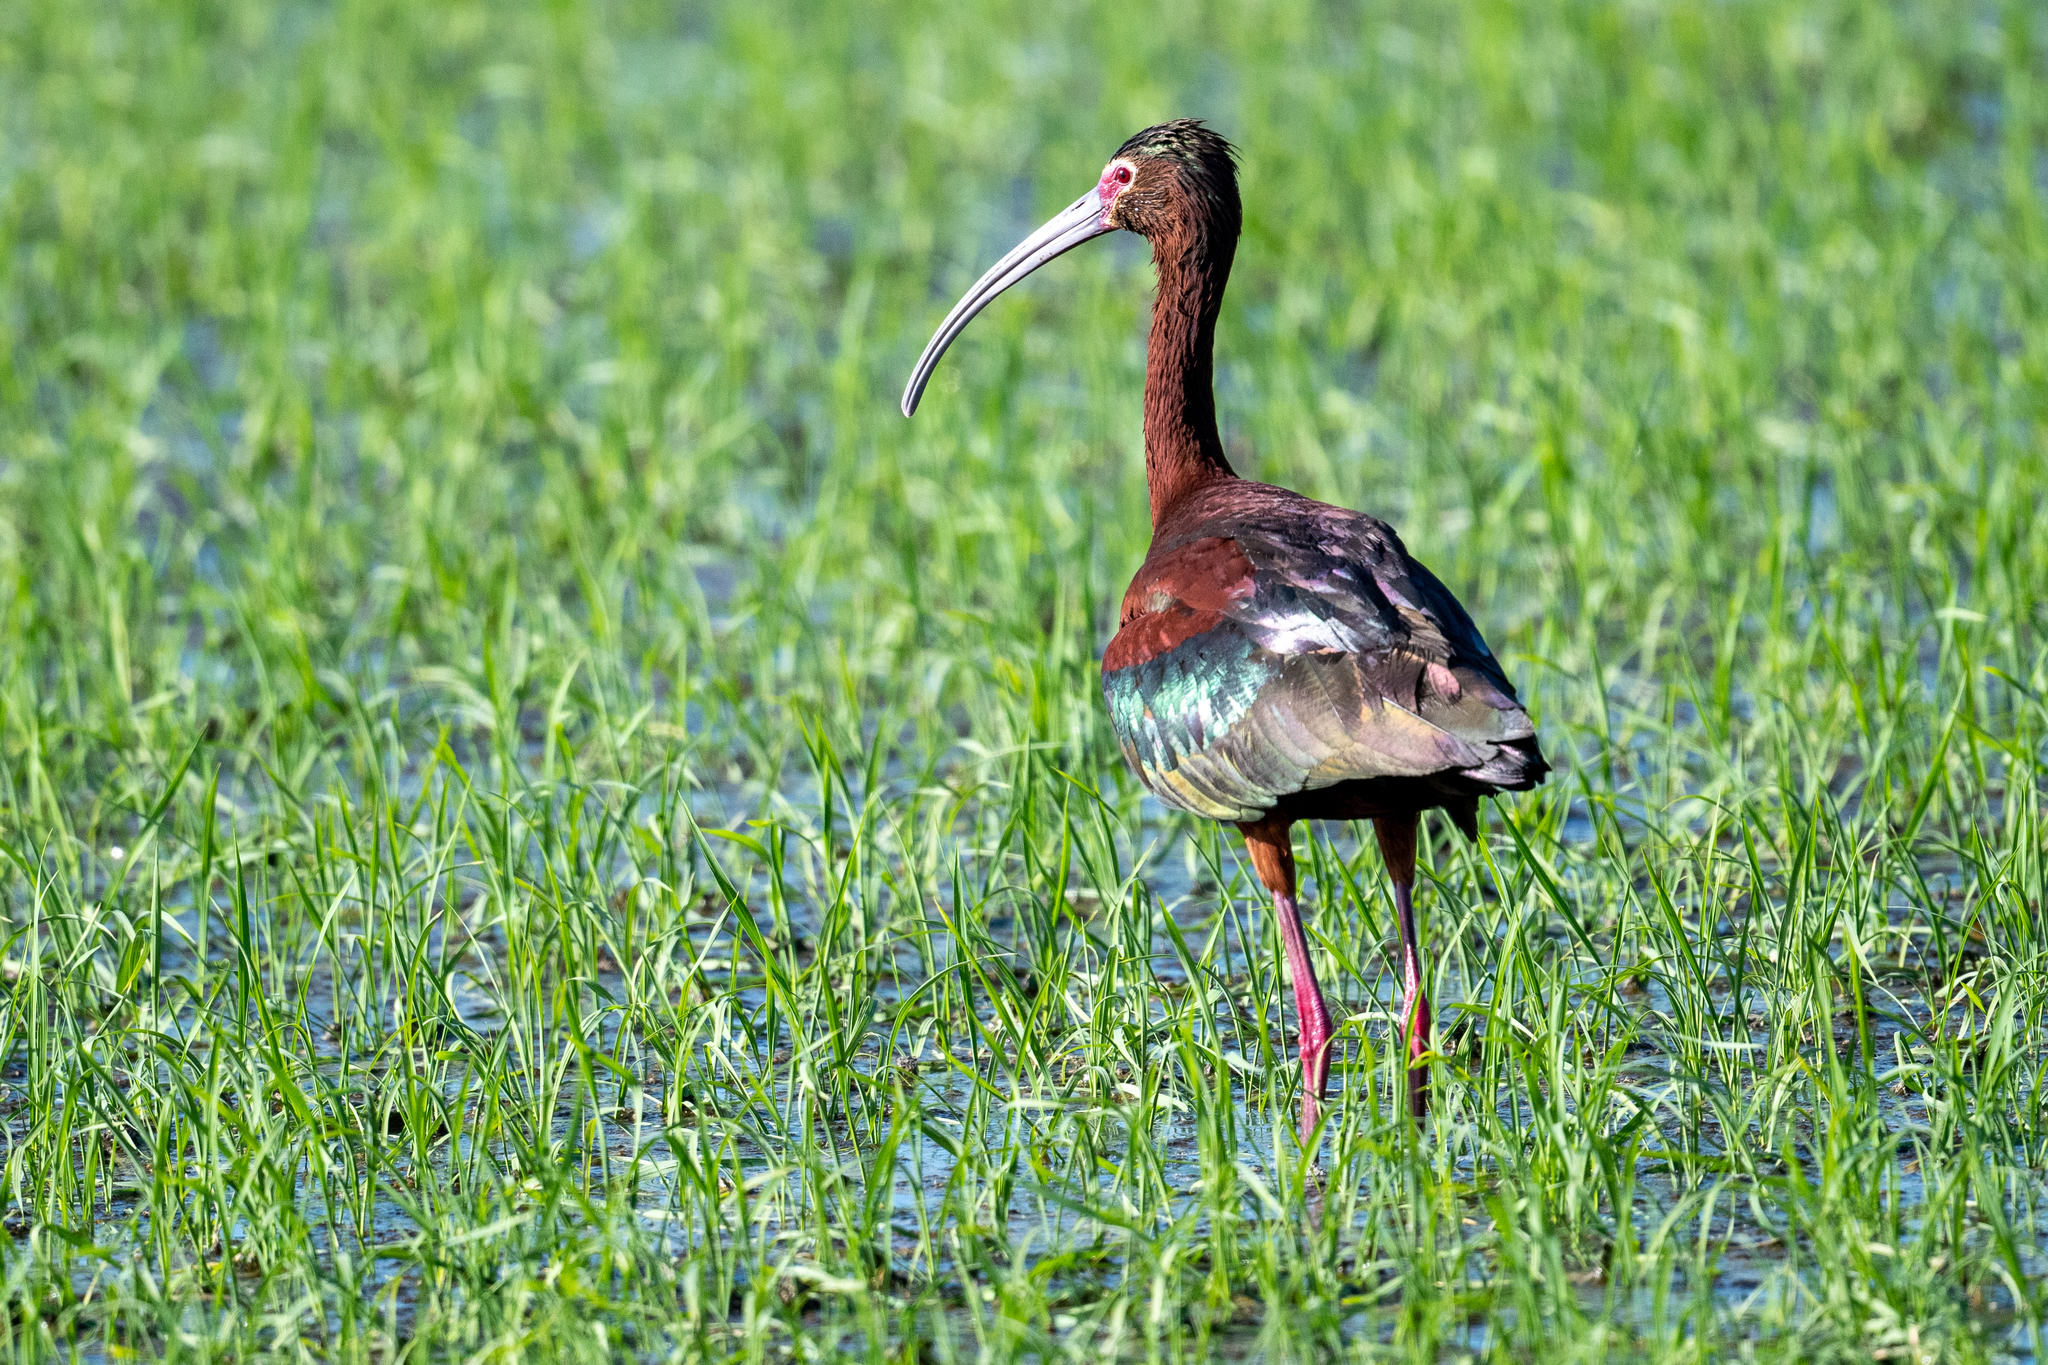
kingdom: Animalia
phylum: Chordata
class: Aves
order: Pelecaniformes
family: Threskiornithidae
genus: Plegadis
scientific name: Plegadis chihi
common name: White-faced ibis
